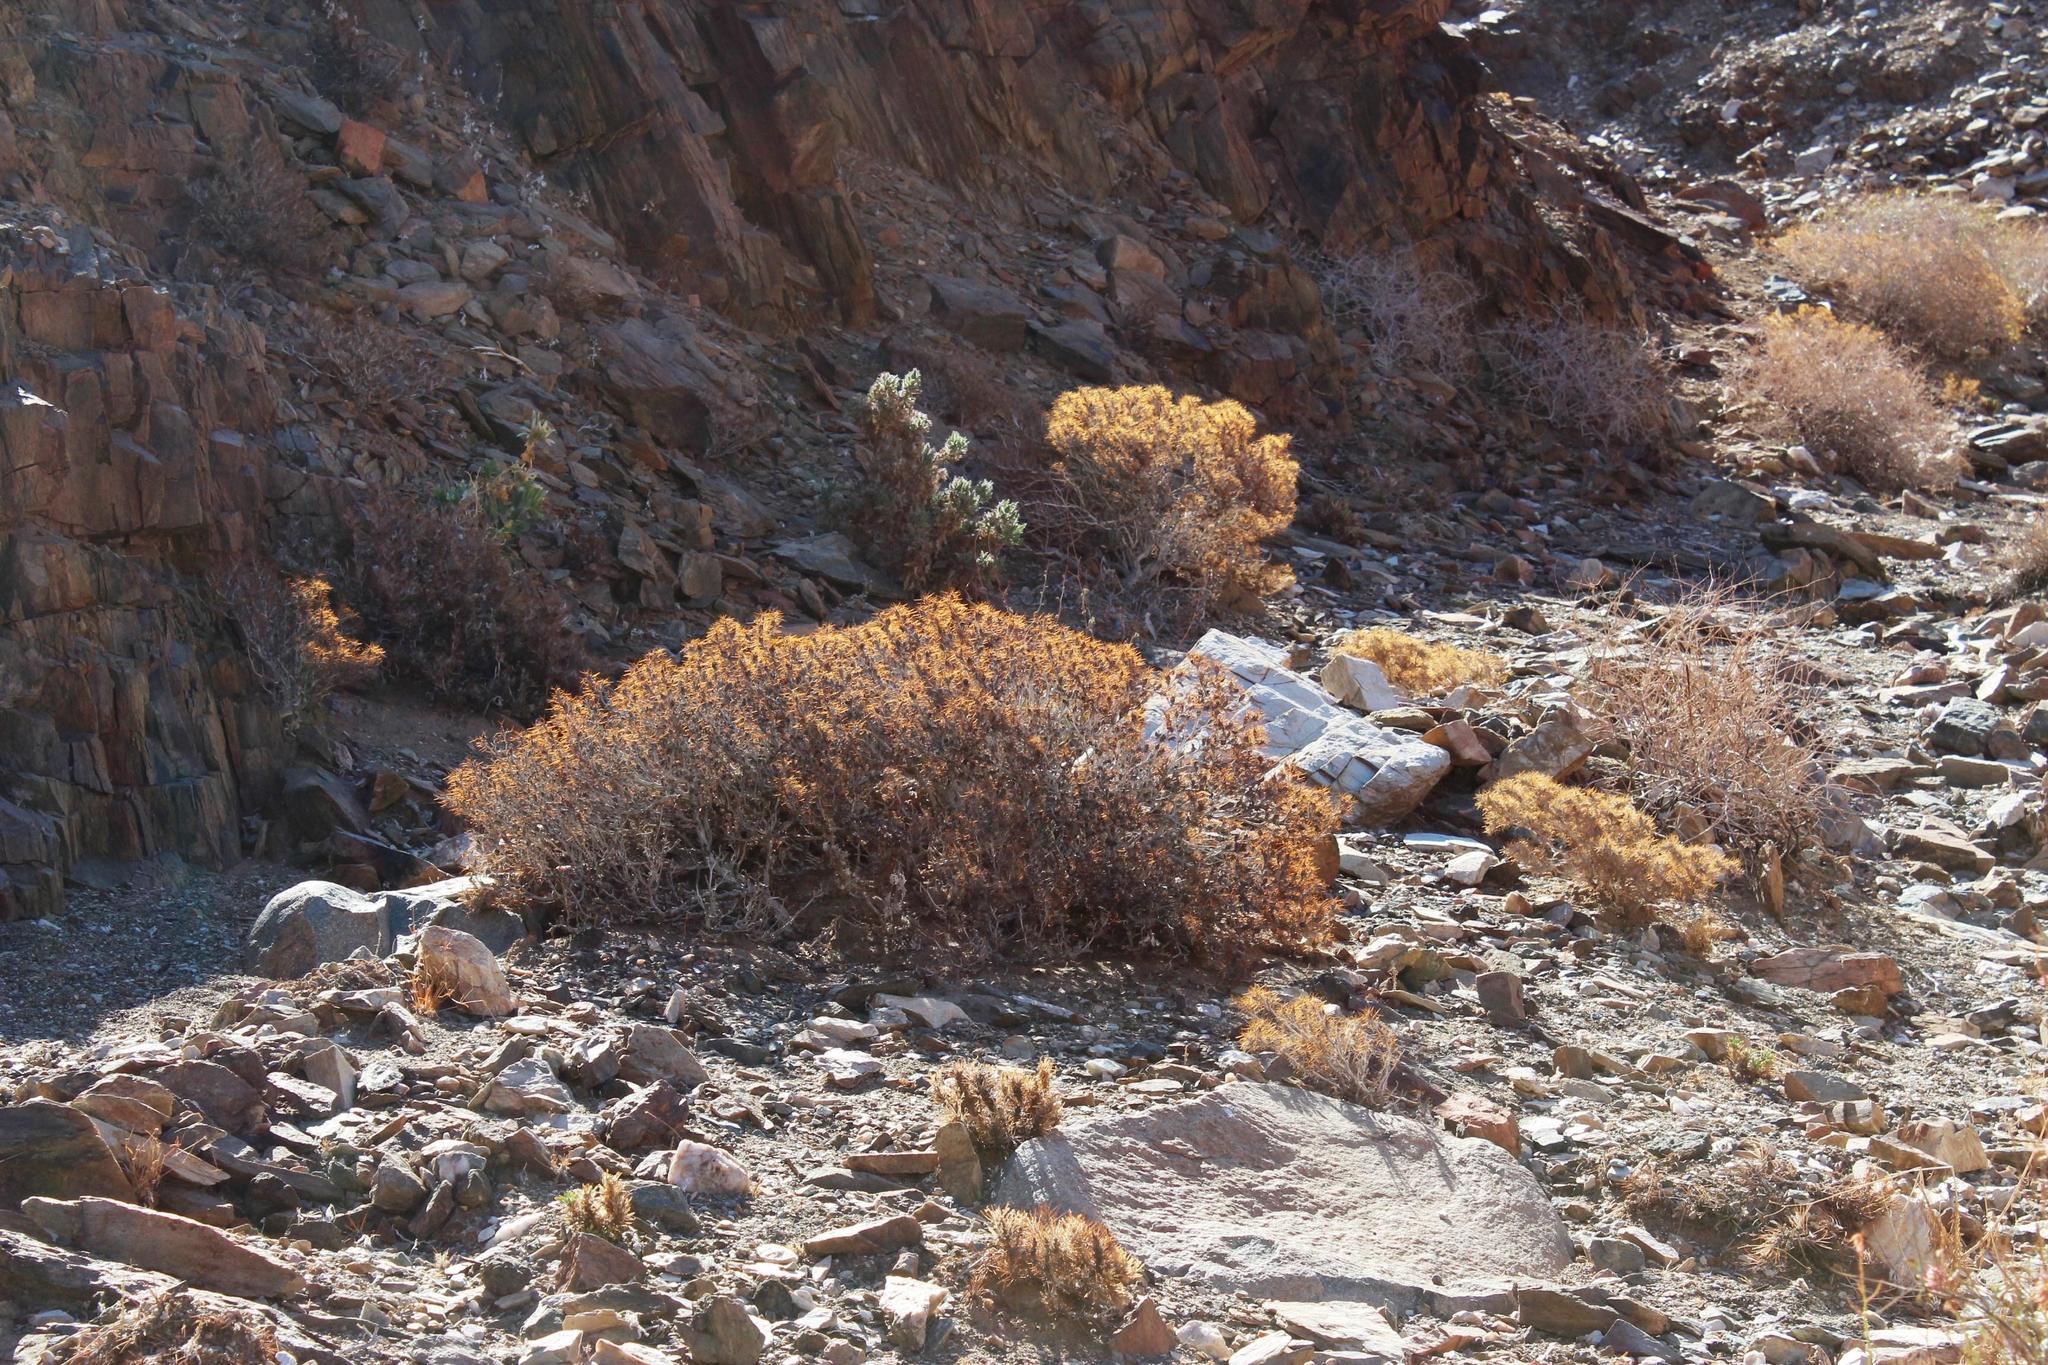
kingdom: Plantae
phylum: Tracheophyta
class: Magnoliopsida
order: Lamiales
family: Acanthaceae
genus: Blepharis
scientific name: Blepharis furcata
